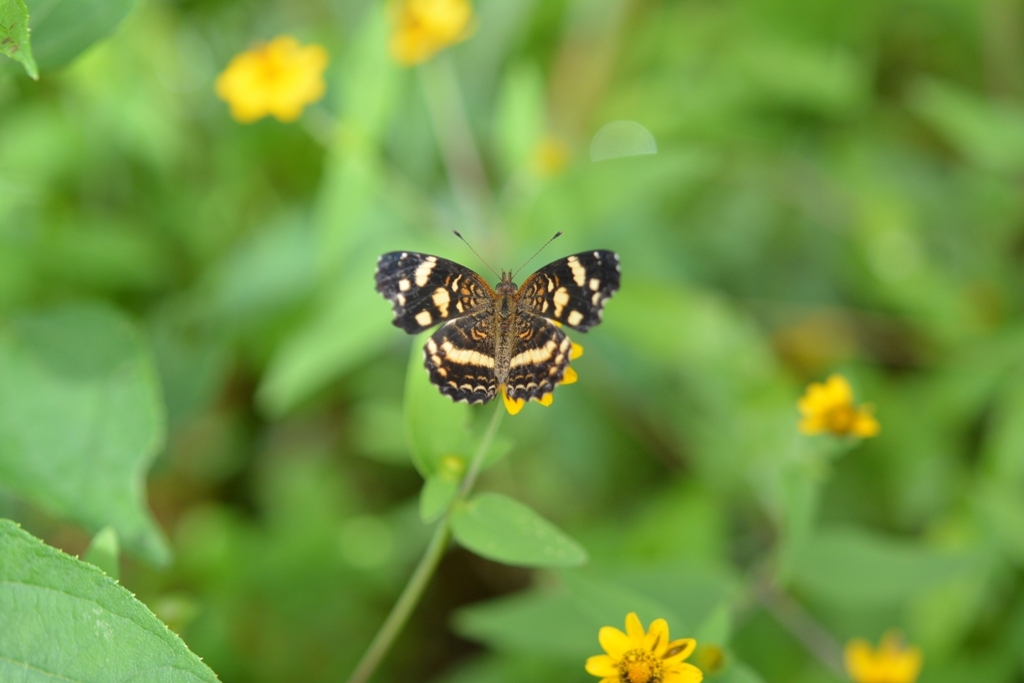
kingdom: Animalia
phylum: Arthropoda
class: Insecta
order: Lepidoptera
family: Nymphalidae
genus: Anthanassa
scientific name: Anthanassa tulcis
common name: Pale-banded crescent
